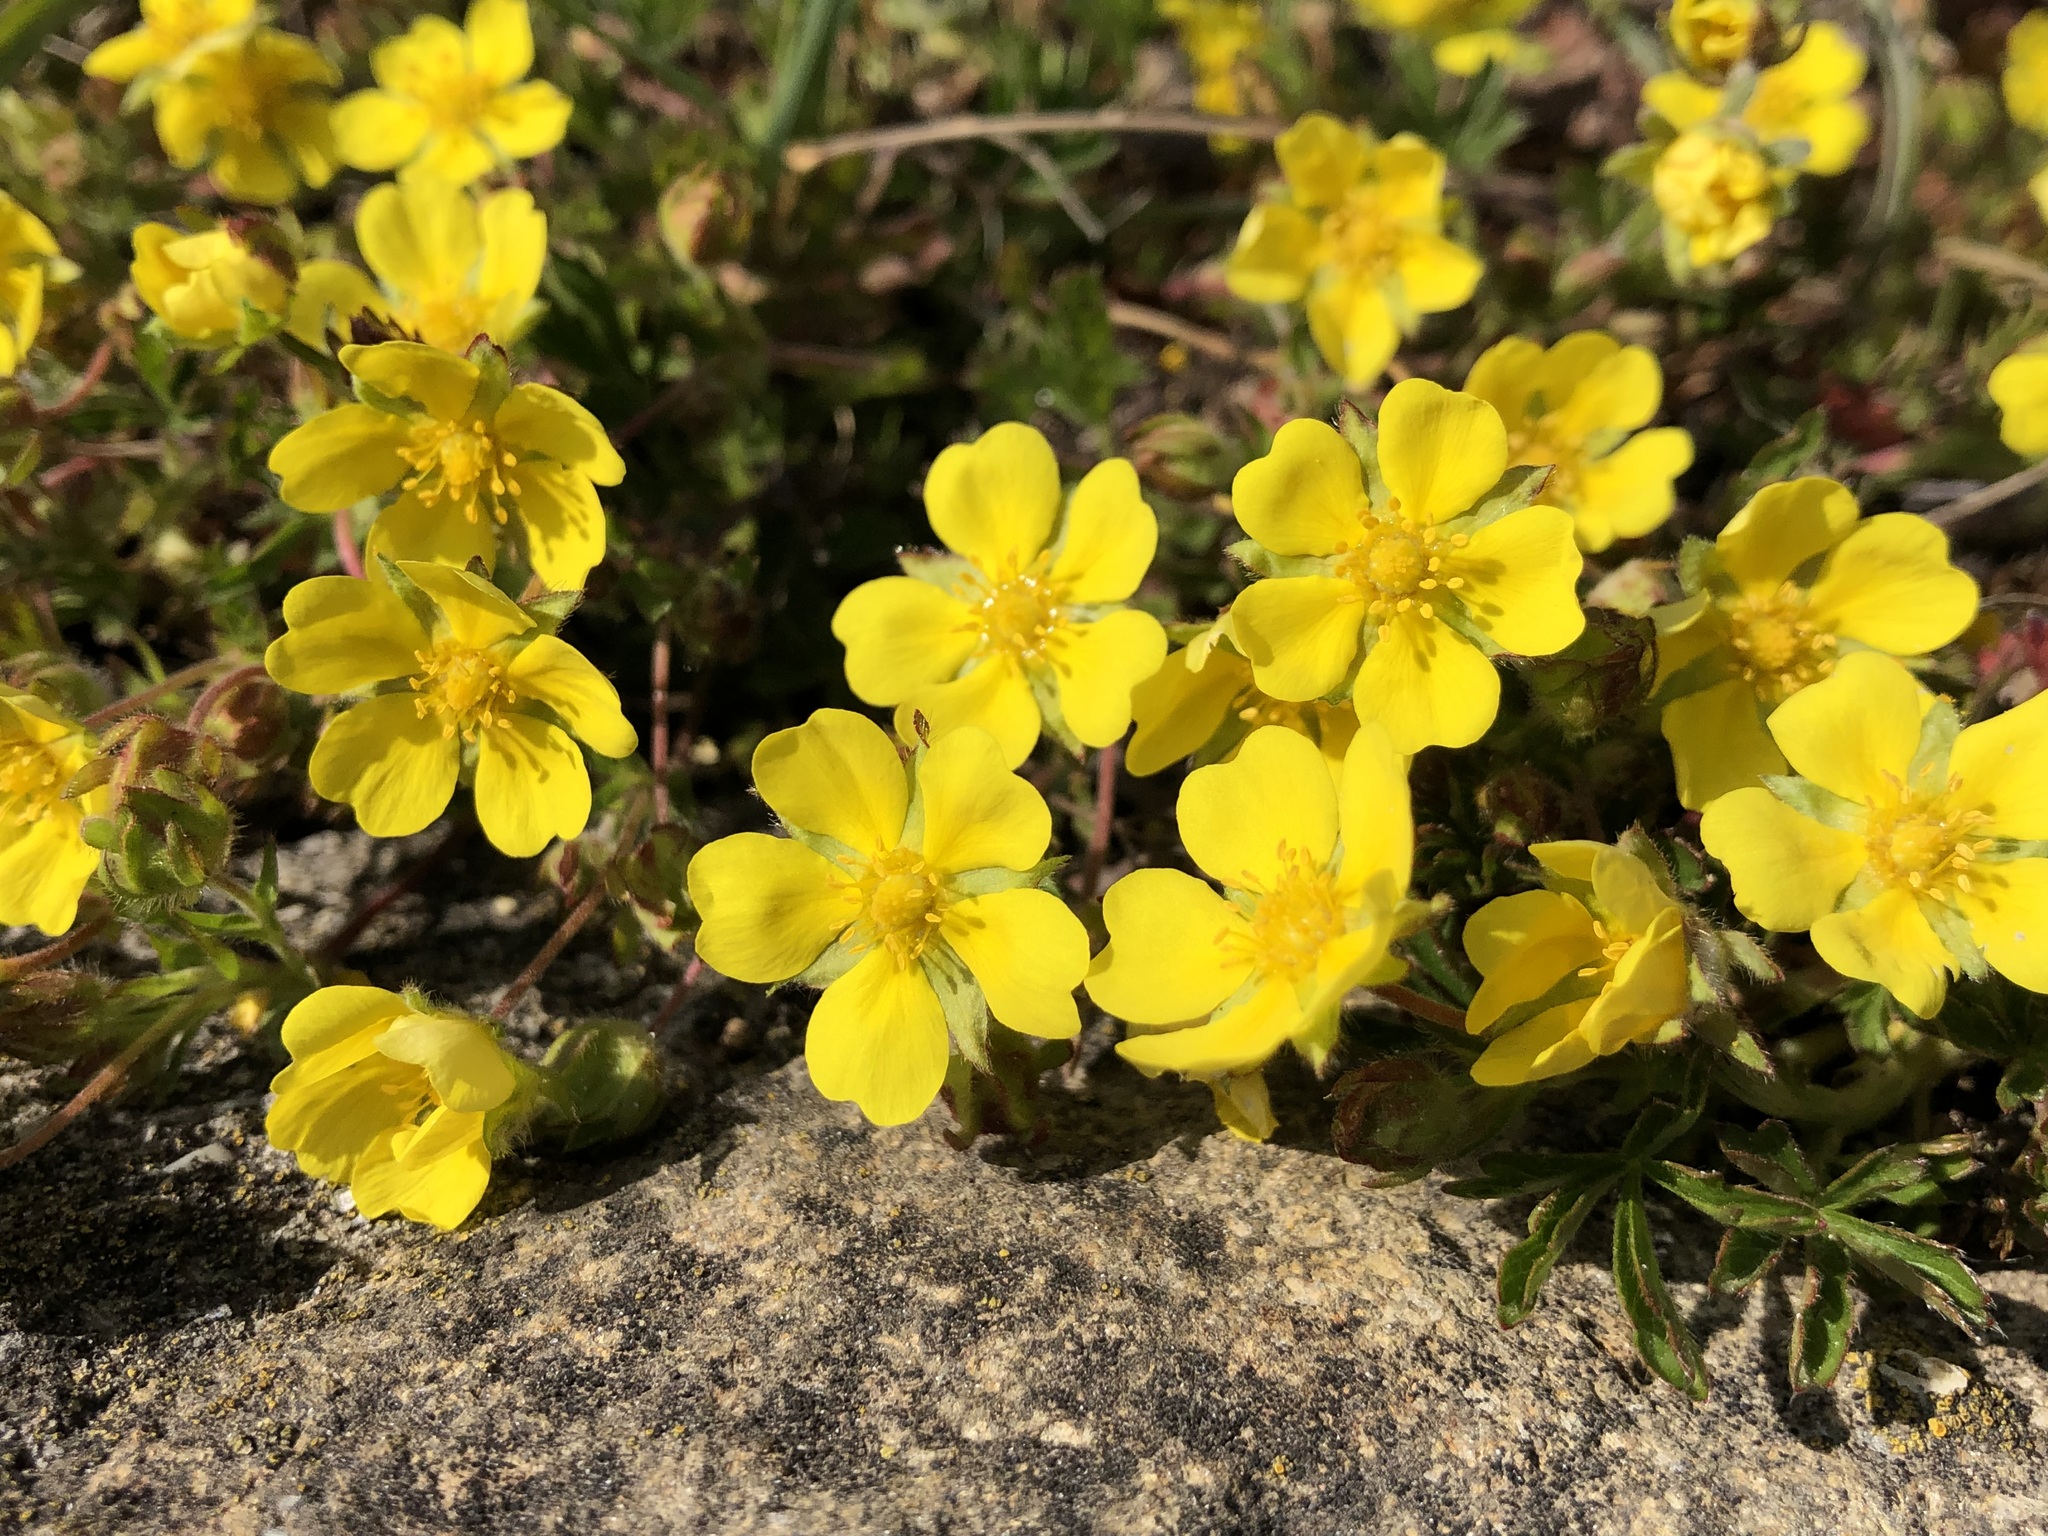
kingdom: Plantae
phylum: Tracheophyta
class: Magnoliopsida
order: Rosales
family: Rosaceae
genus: Potentilla
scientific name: Potentilla verna
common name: Spring cinquefoil
